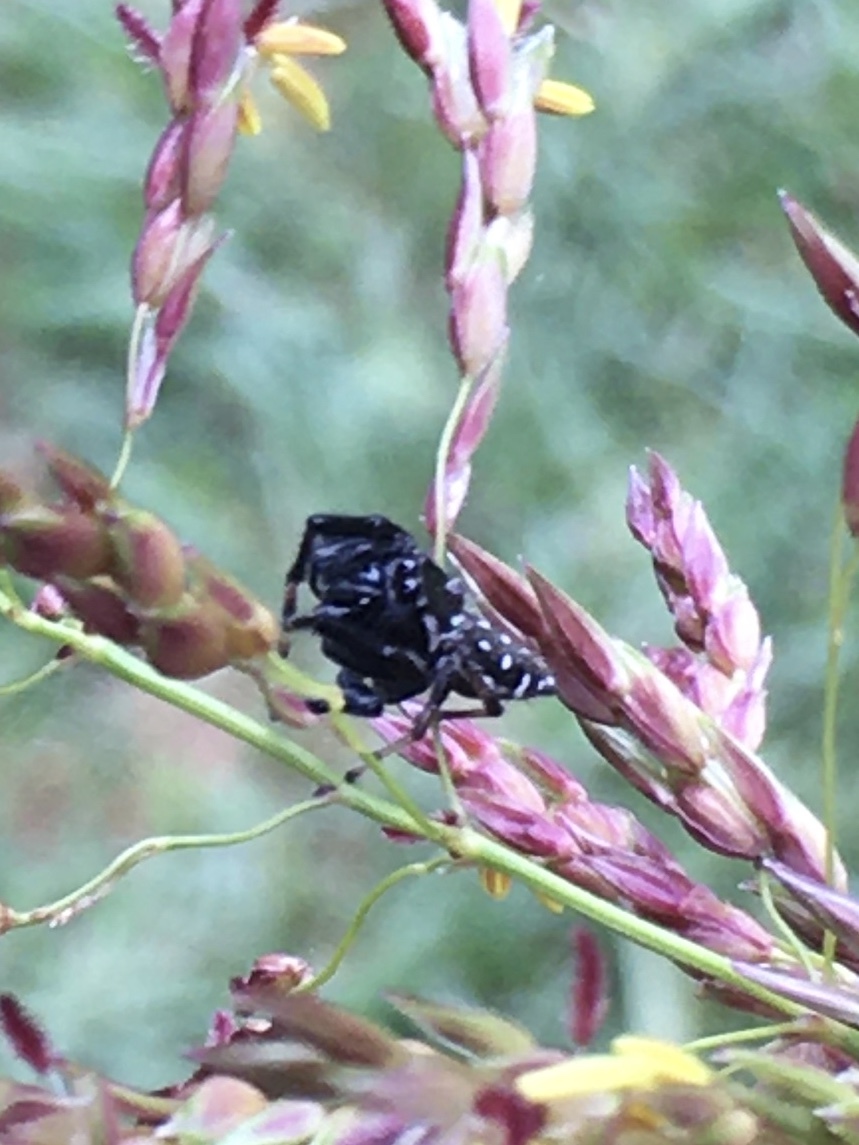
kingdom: Animalia
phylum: Arthropoda
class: Arachnida
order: Araneae
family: Salticidae
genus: Paraphidippus
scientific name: Paraphidippus aurantius
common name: Jumping spiders
